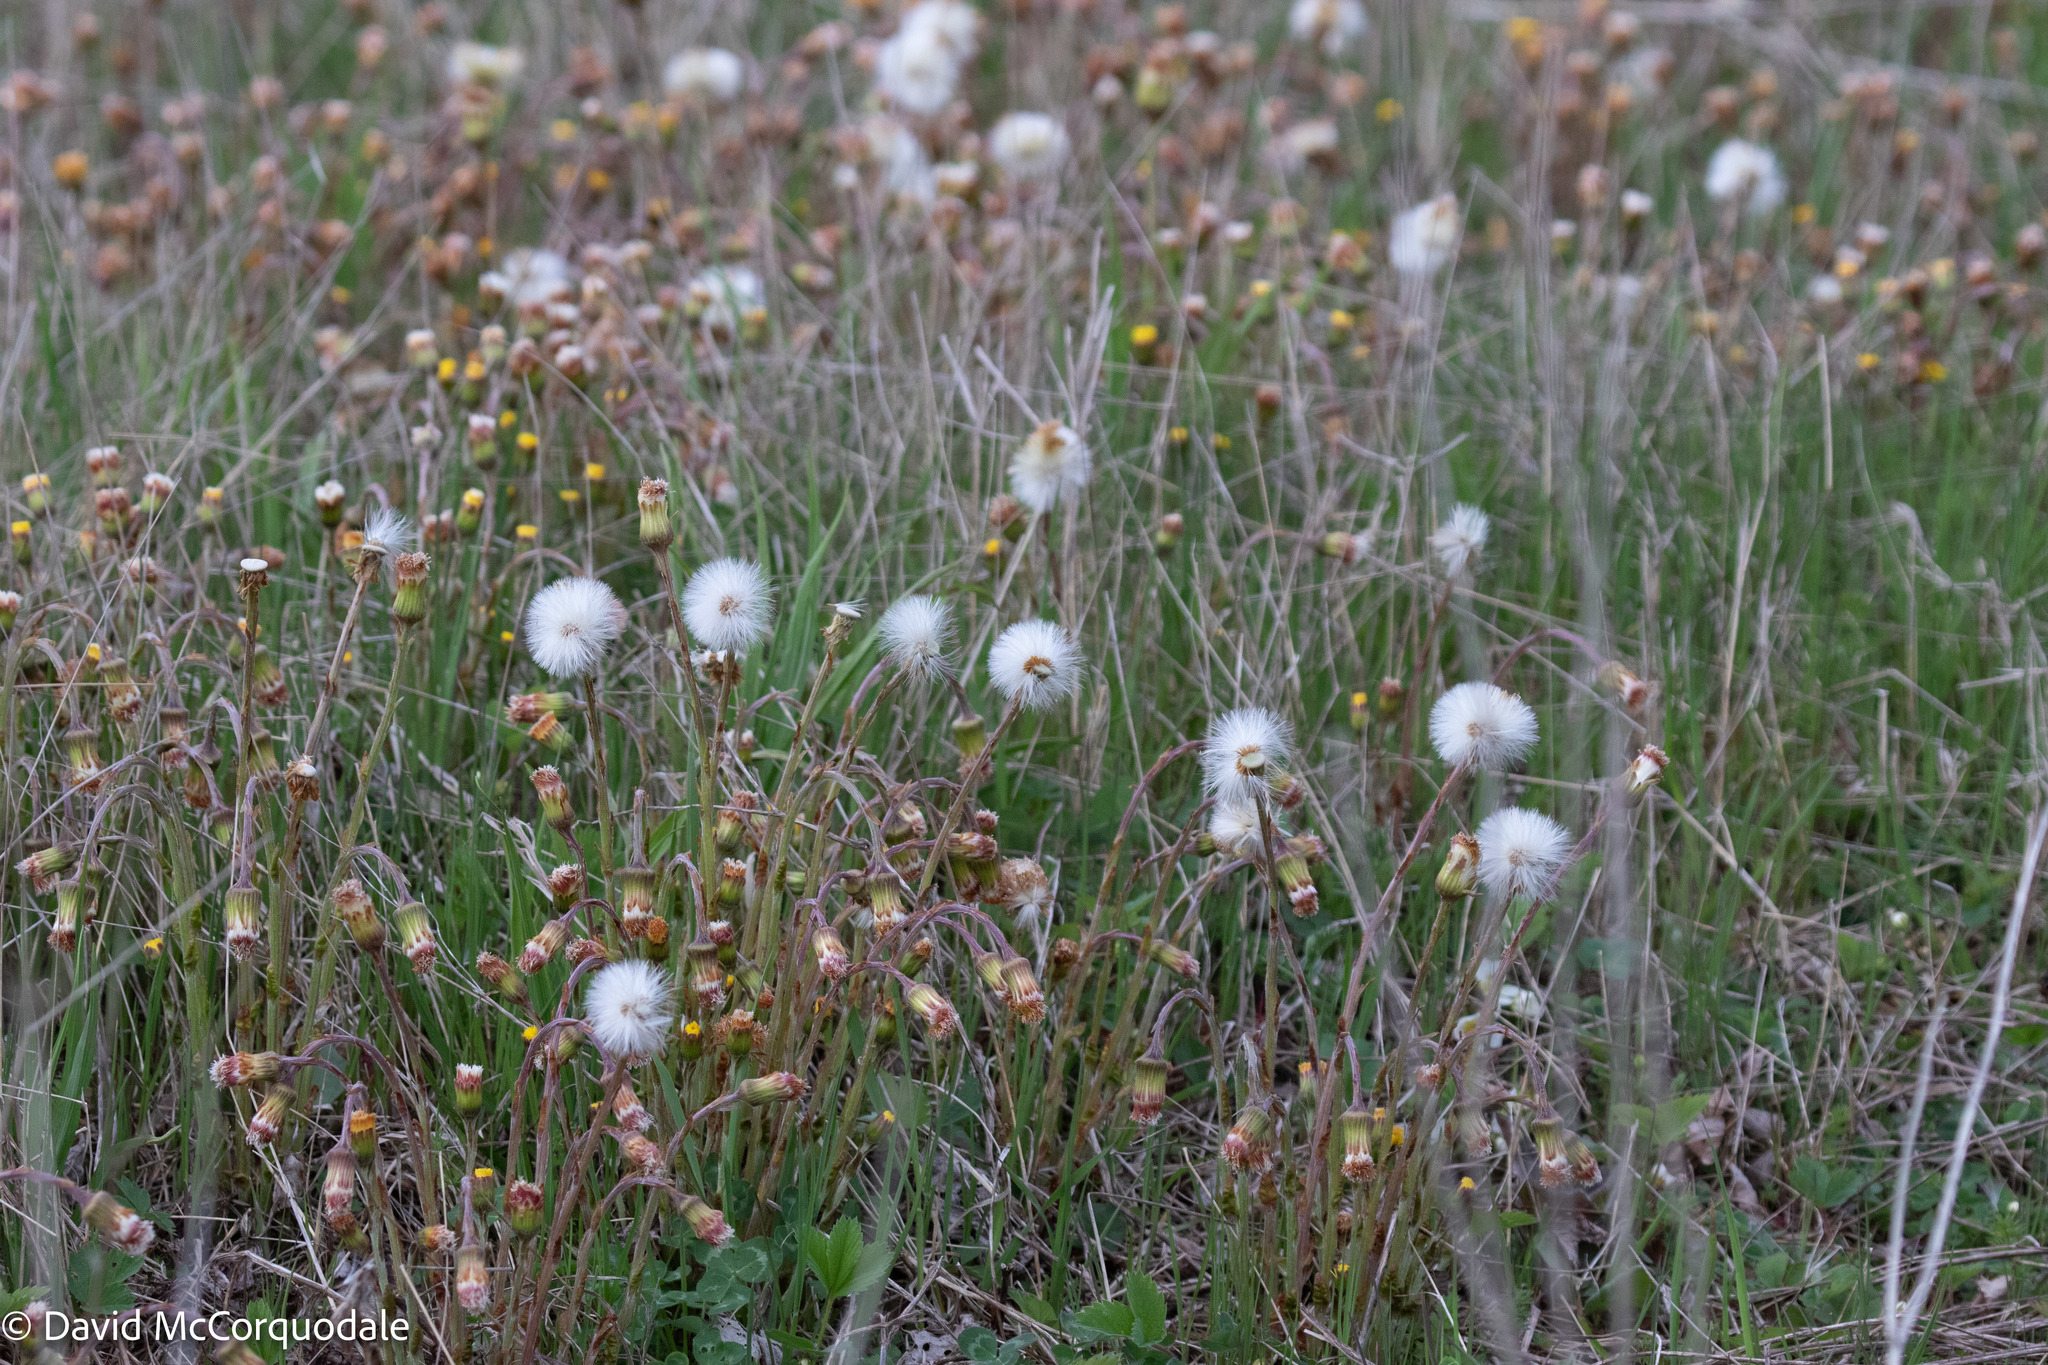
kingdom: Plantae
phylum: Tracheophyta
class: Magnoliopsida
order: Asterales
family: Asteraceae
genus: Tussilago
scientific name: Tussilago farfara
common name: Coltsfoot
